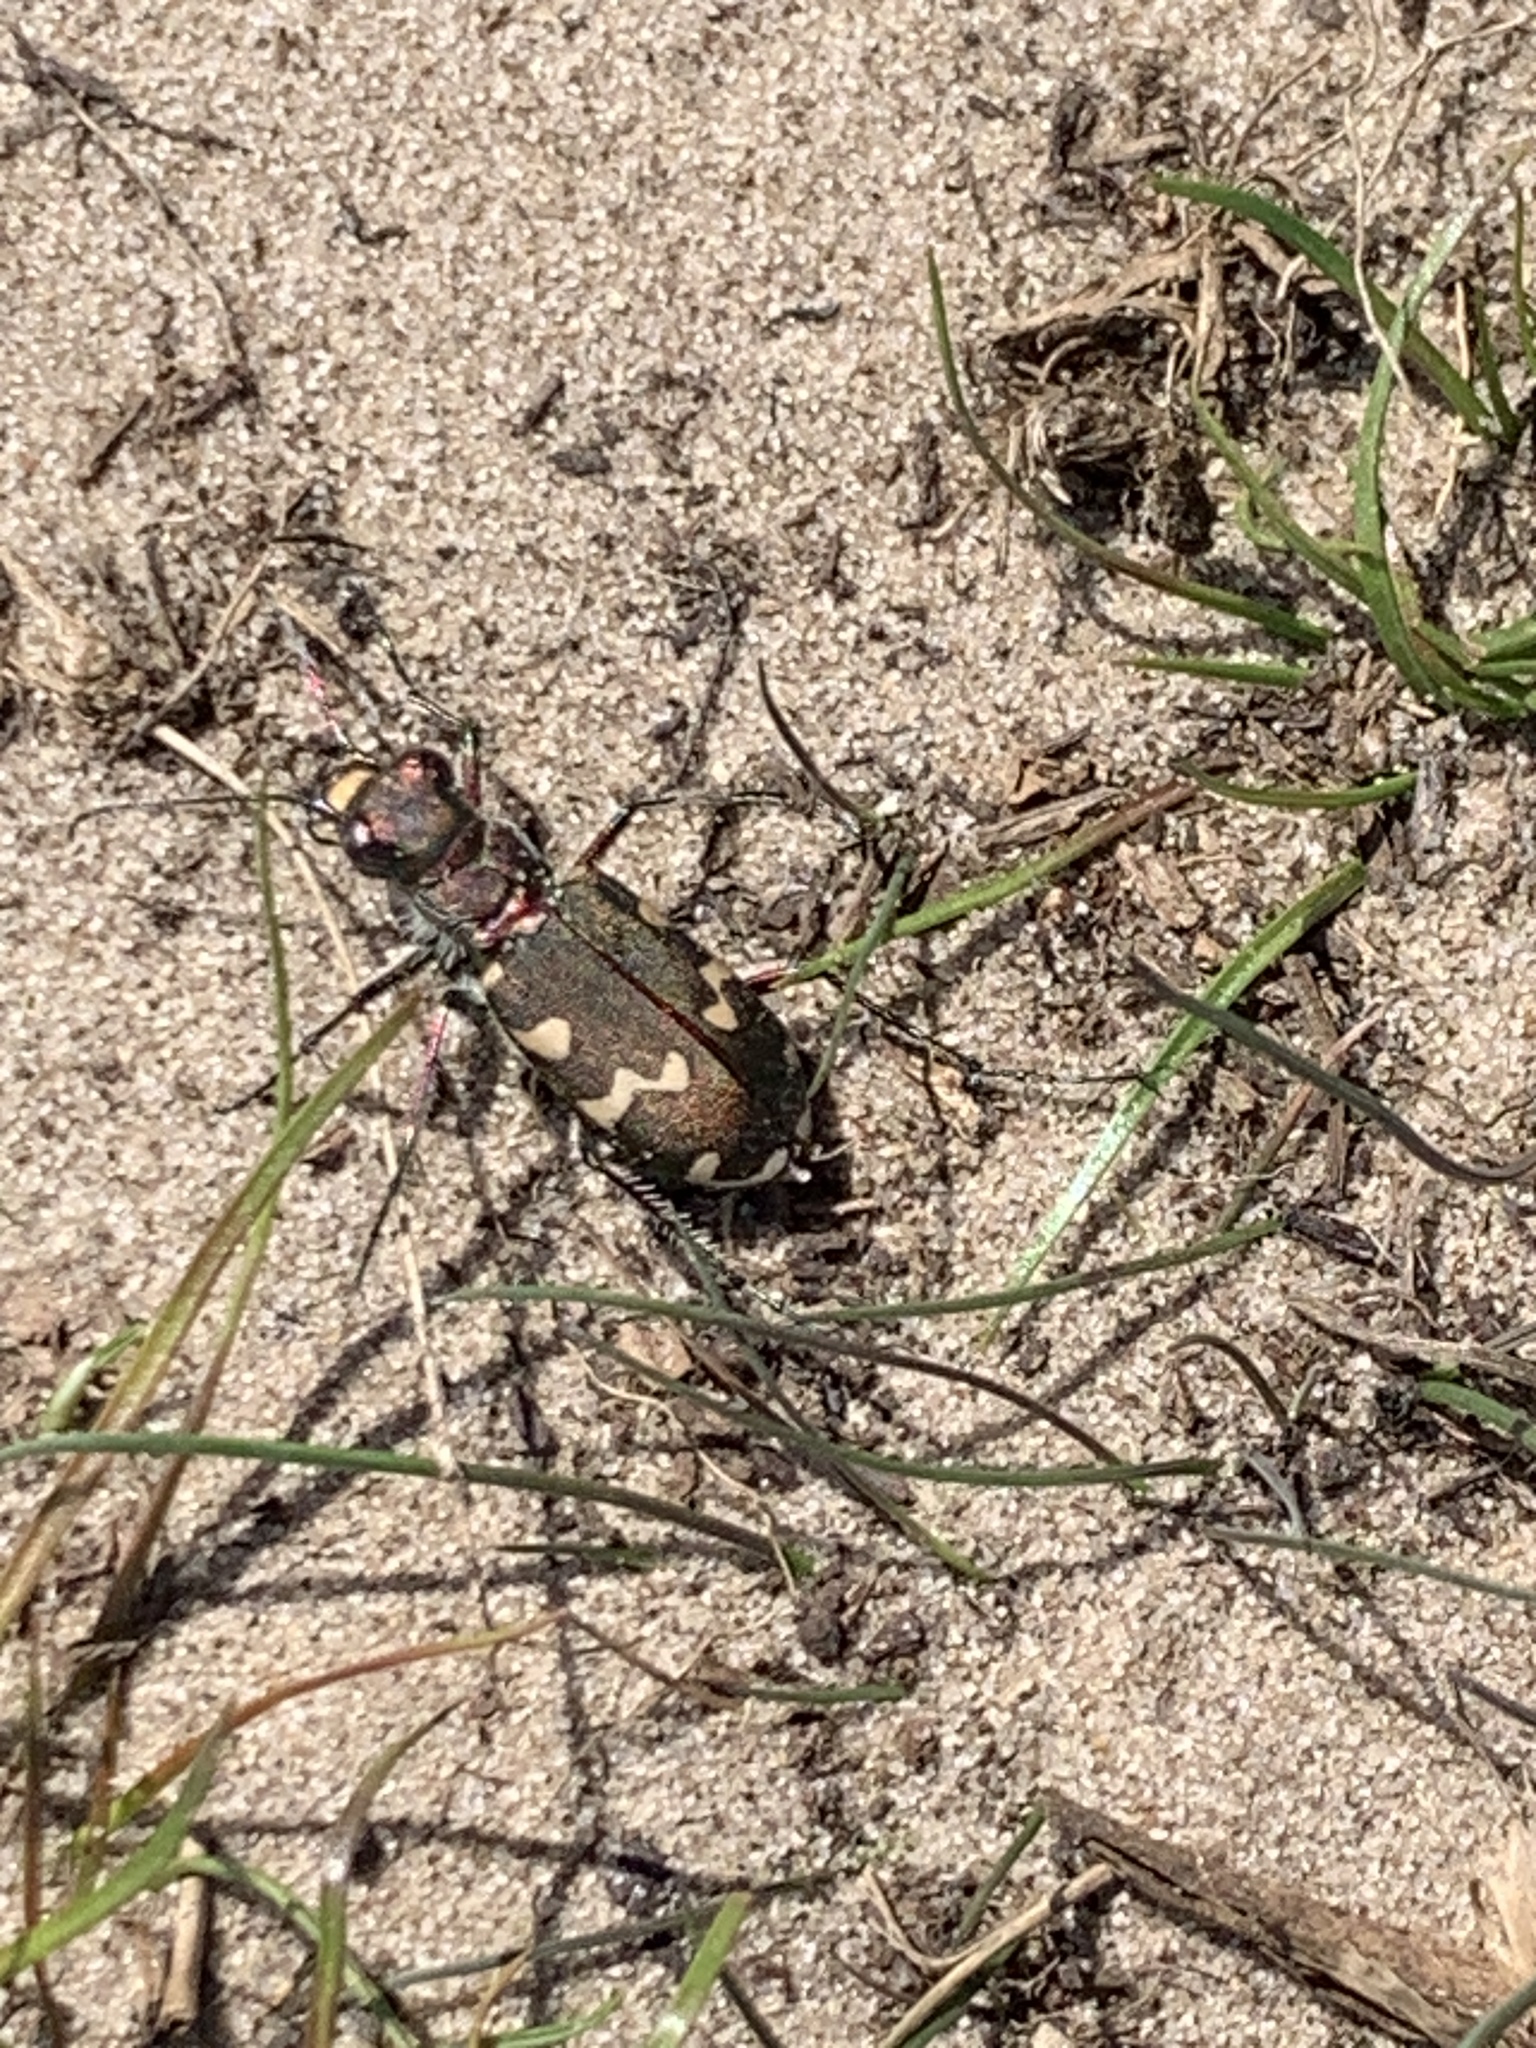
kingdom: Animalia
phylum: Arthropoda
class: Insecta
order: Coleoptera
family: Carabidae
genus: Cicindela
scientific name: Cicindela hybrida
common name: Northern dune tiger beetle
